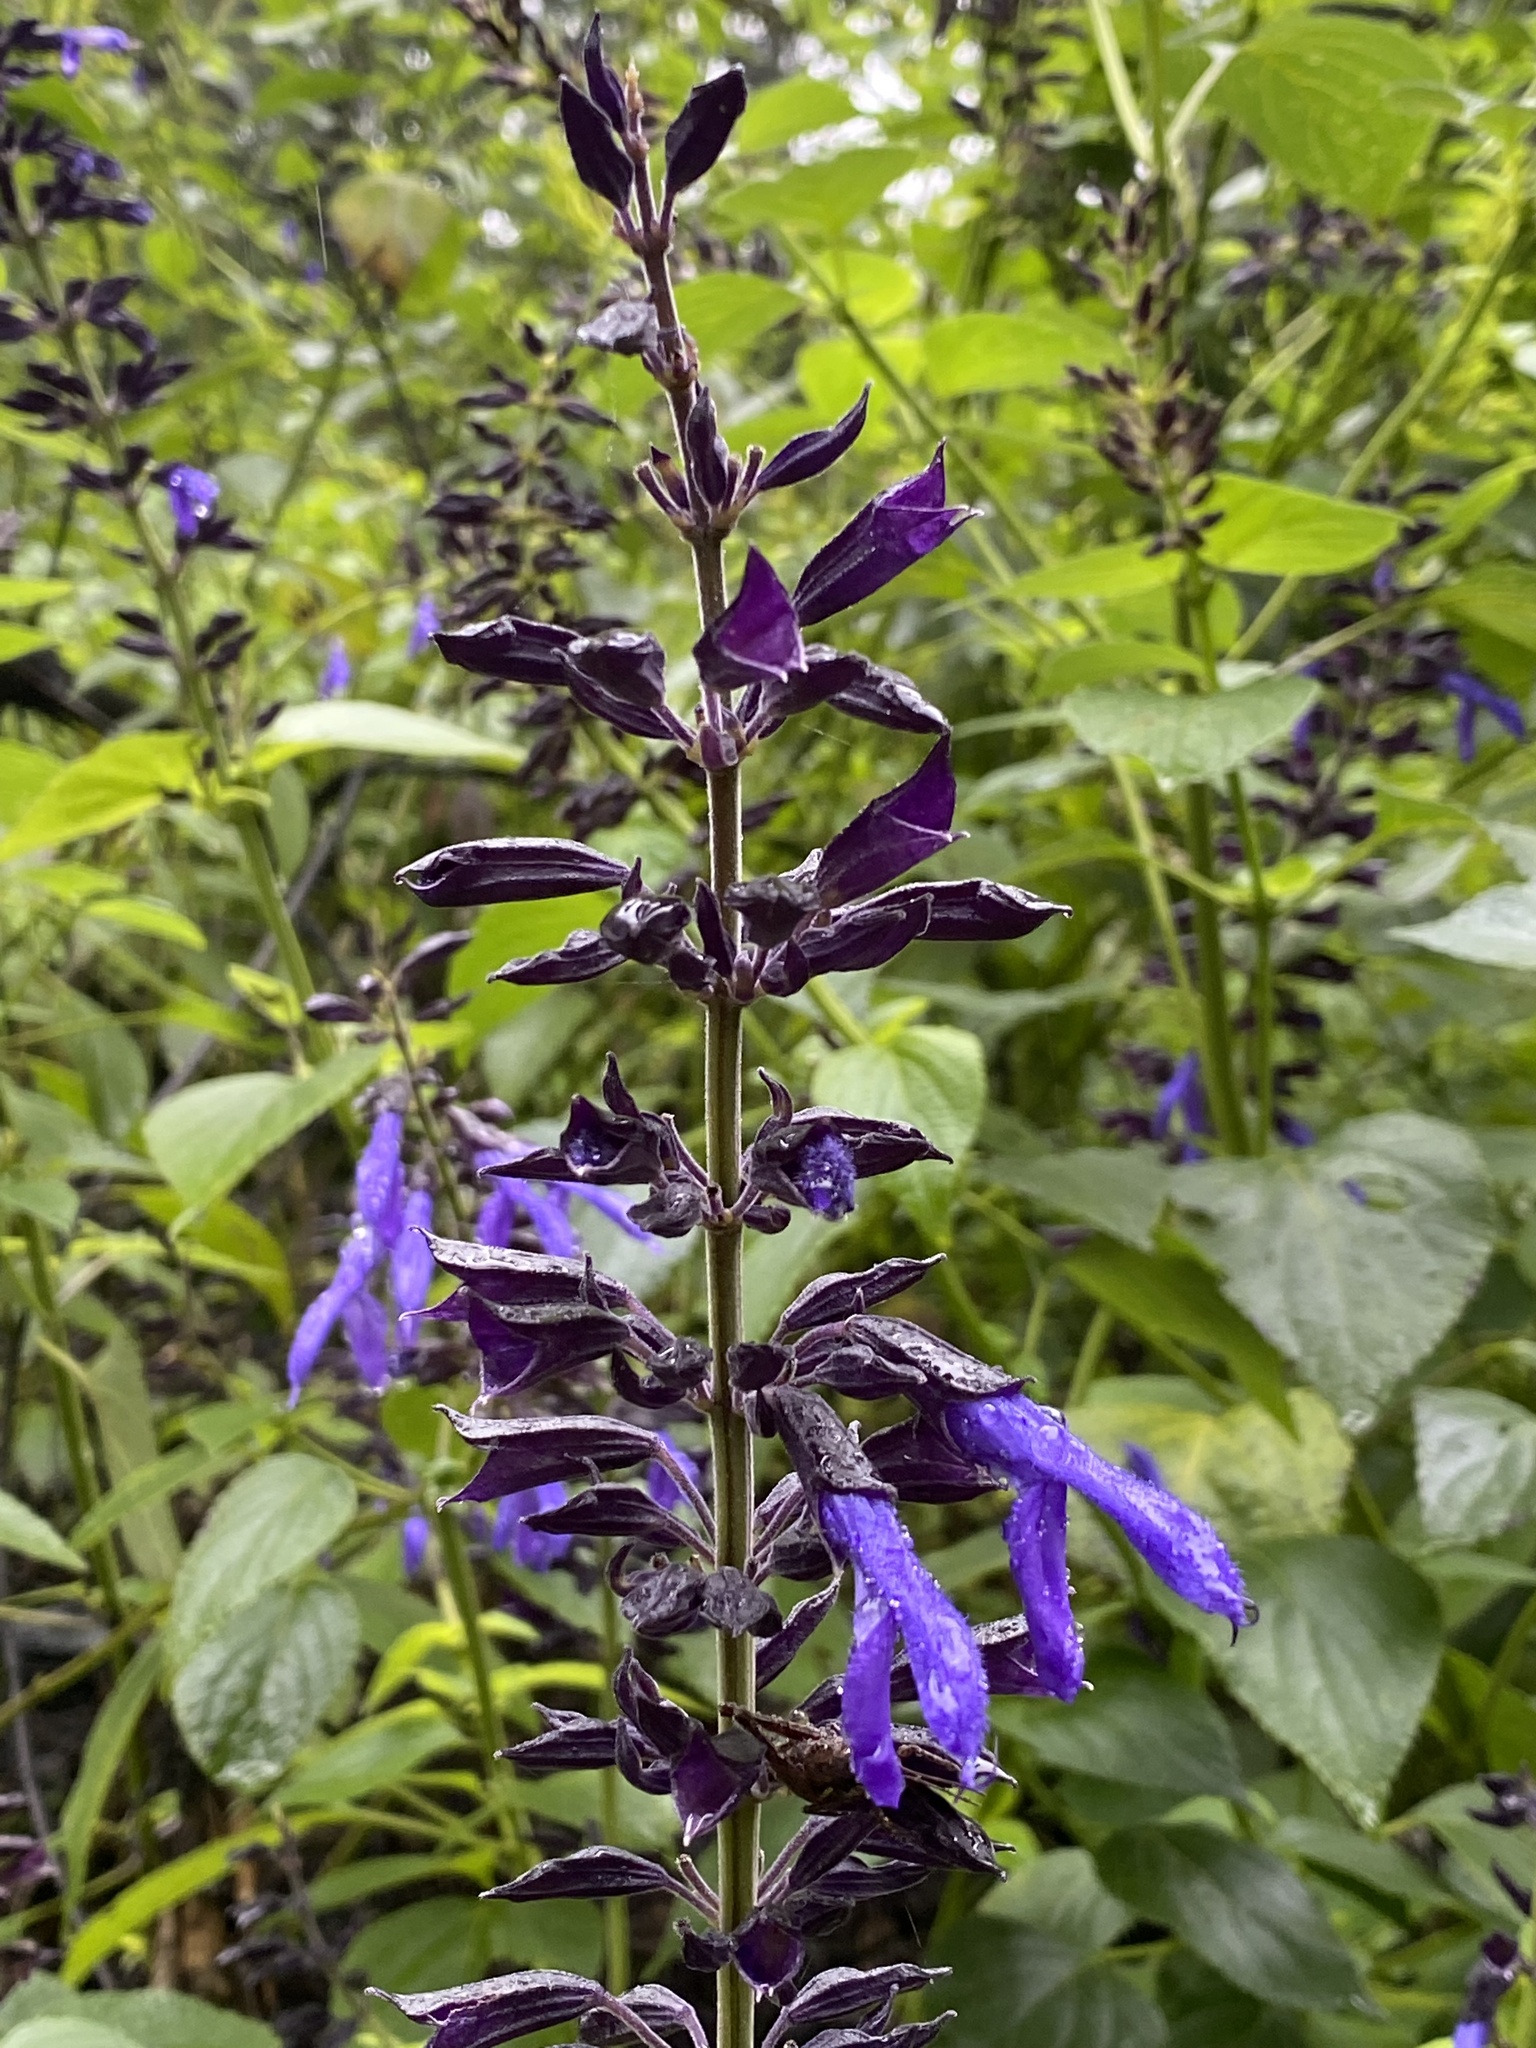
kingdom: Plantae
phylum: Tracheophyta
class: Magnoliopsida
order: Lamiales
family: Lamiaceae
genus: Salvia
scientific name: Salvia mexicana
